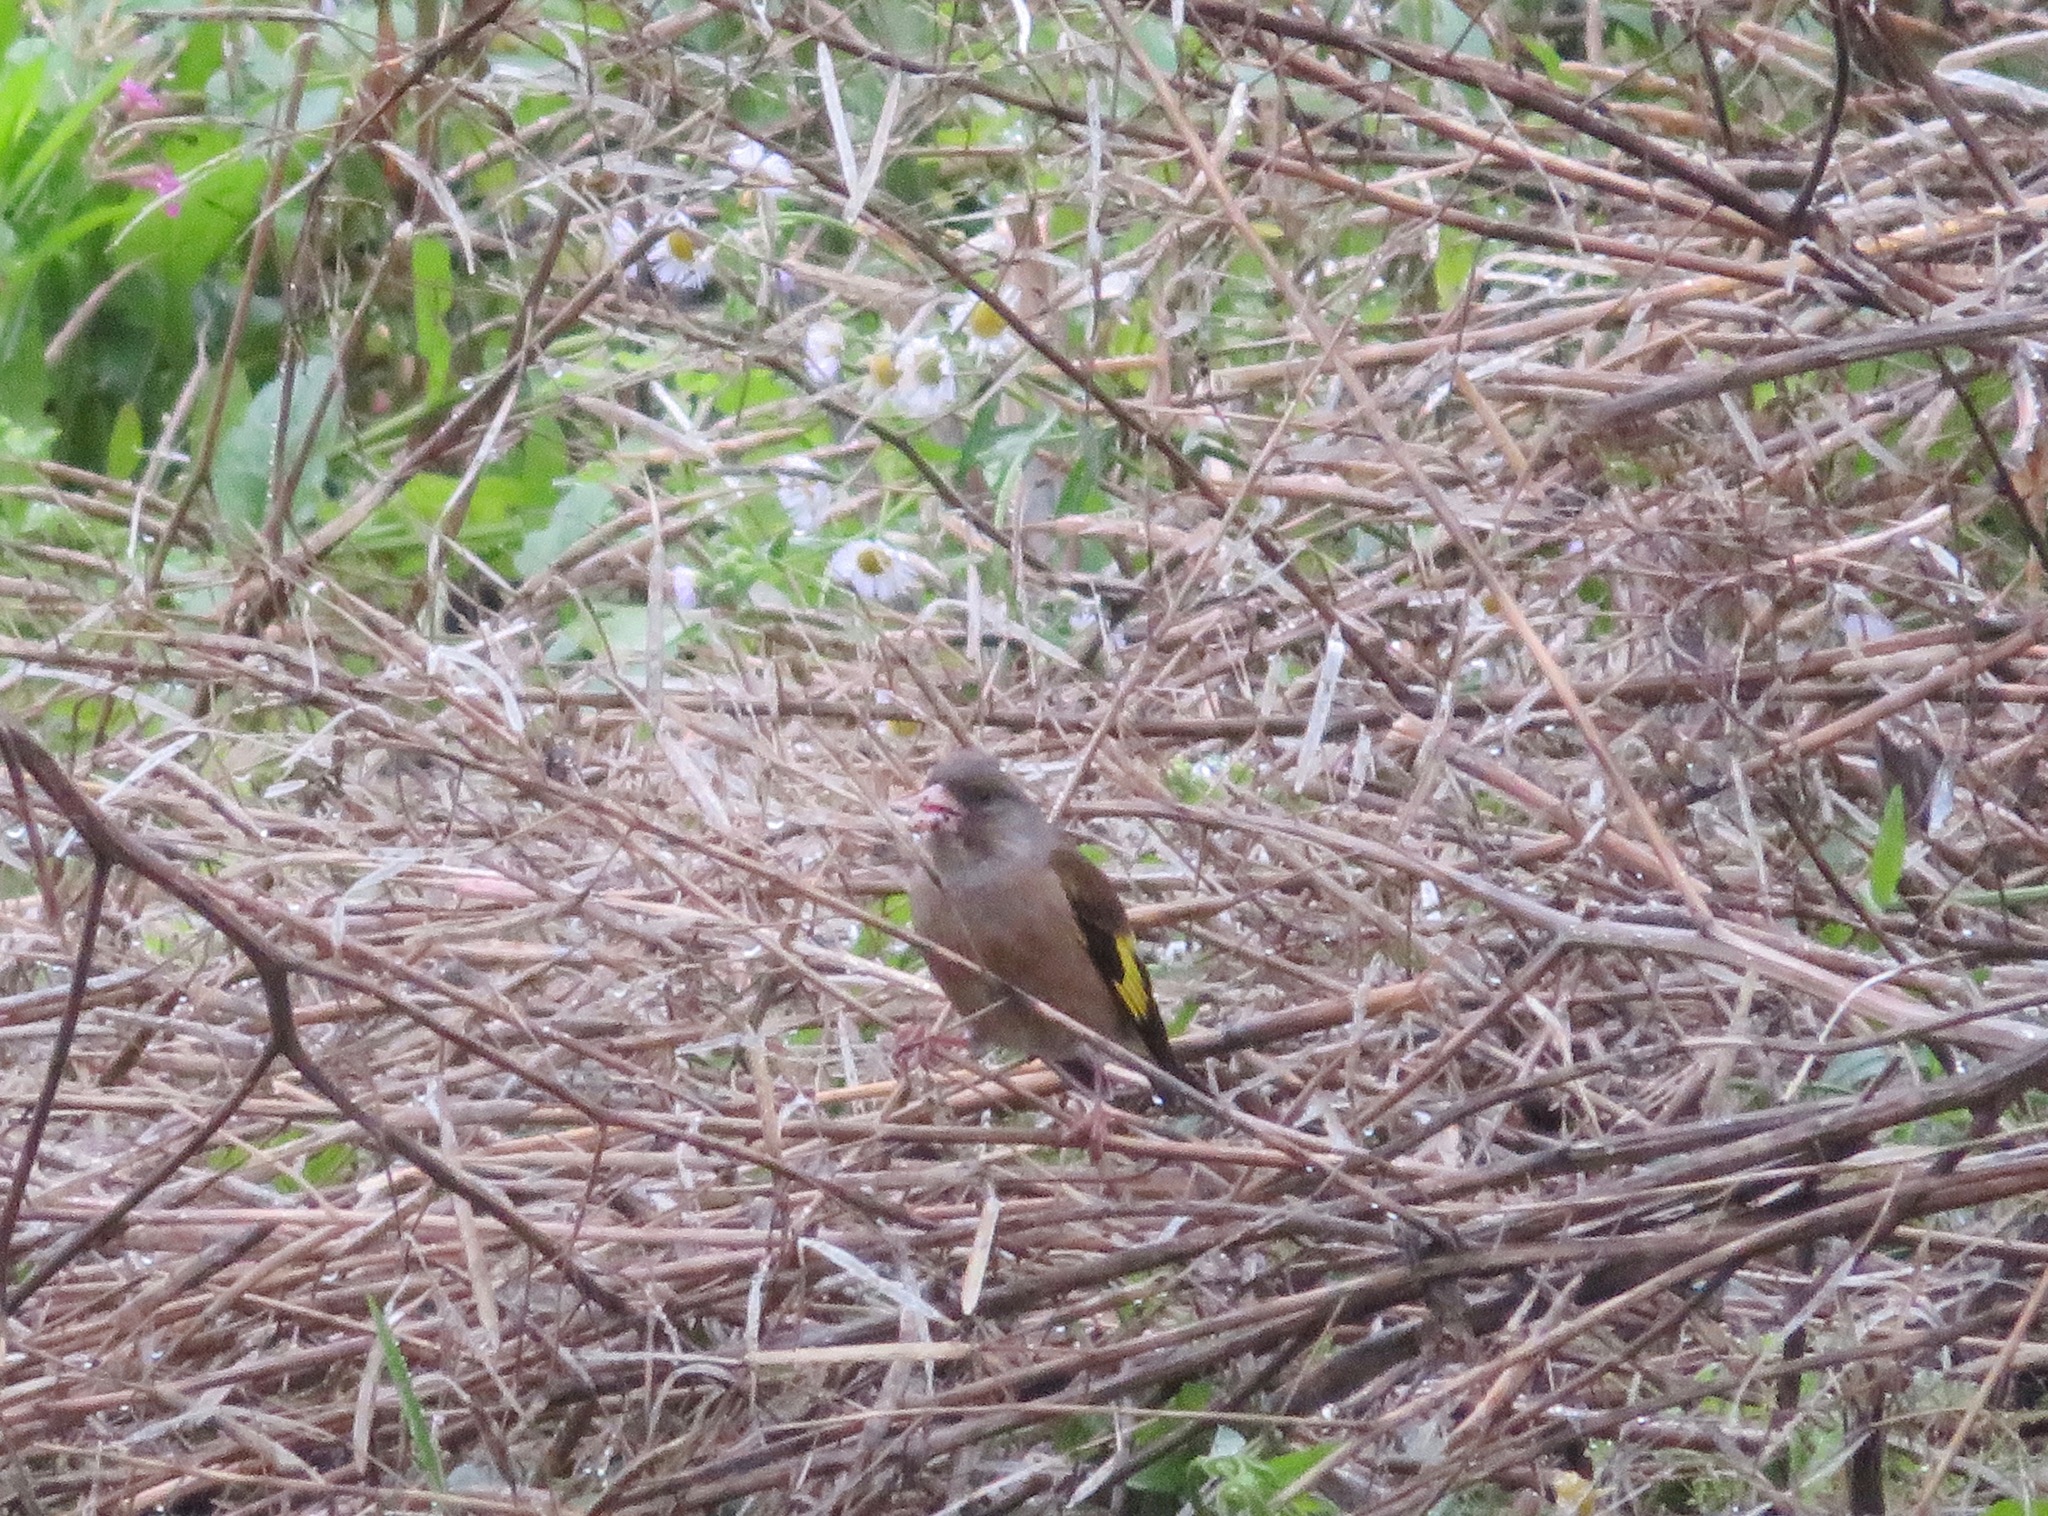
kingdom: Plantae
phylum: Tracheophyta
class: Liliopsida
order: Poales
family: Poaceae
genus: Chloris
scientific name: Chloris sinica
